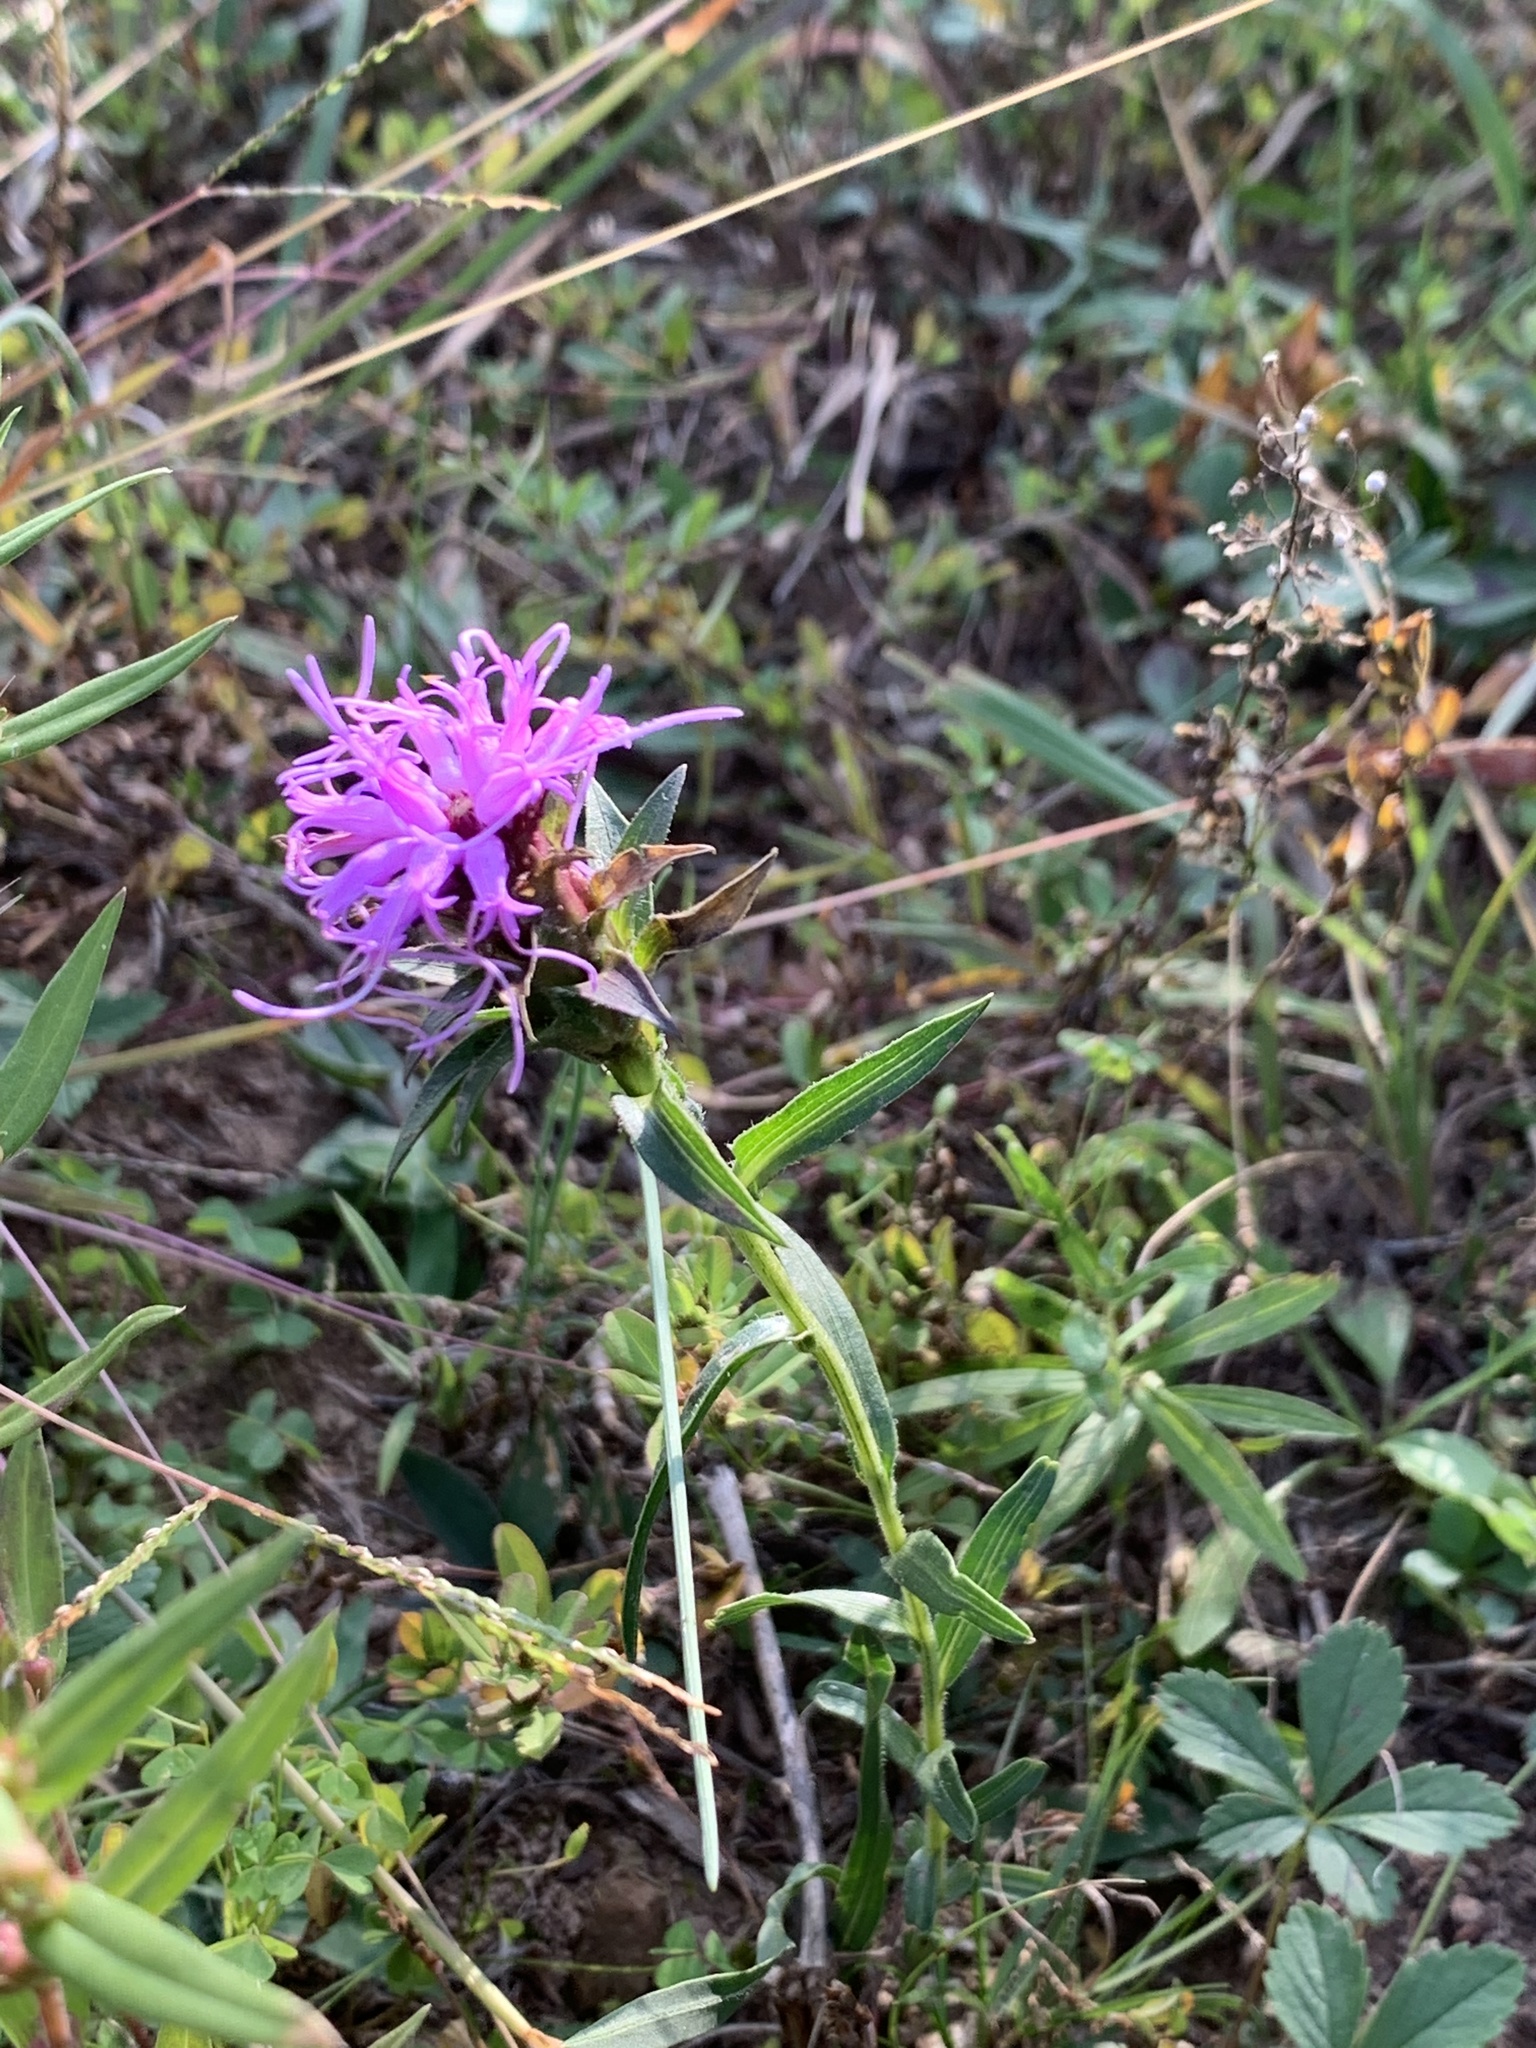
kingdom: Plantae
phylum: Tracheophyta
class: Magnoliopsida
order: Asterales
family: Asteraceae
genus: Liatris
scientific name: Liatris squarrosa
